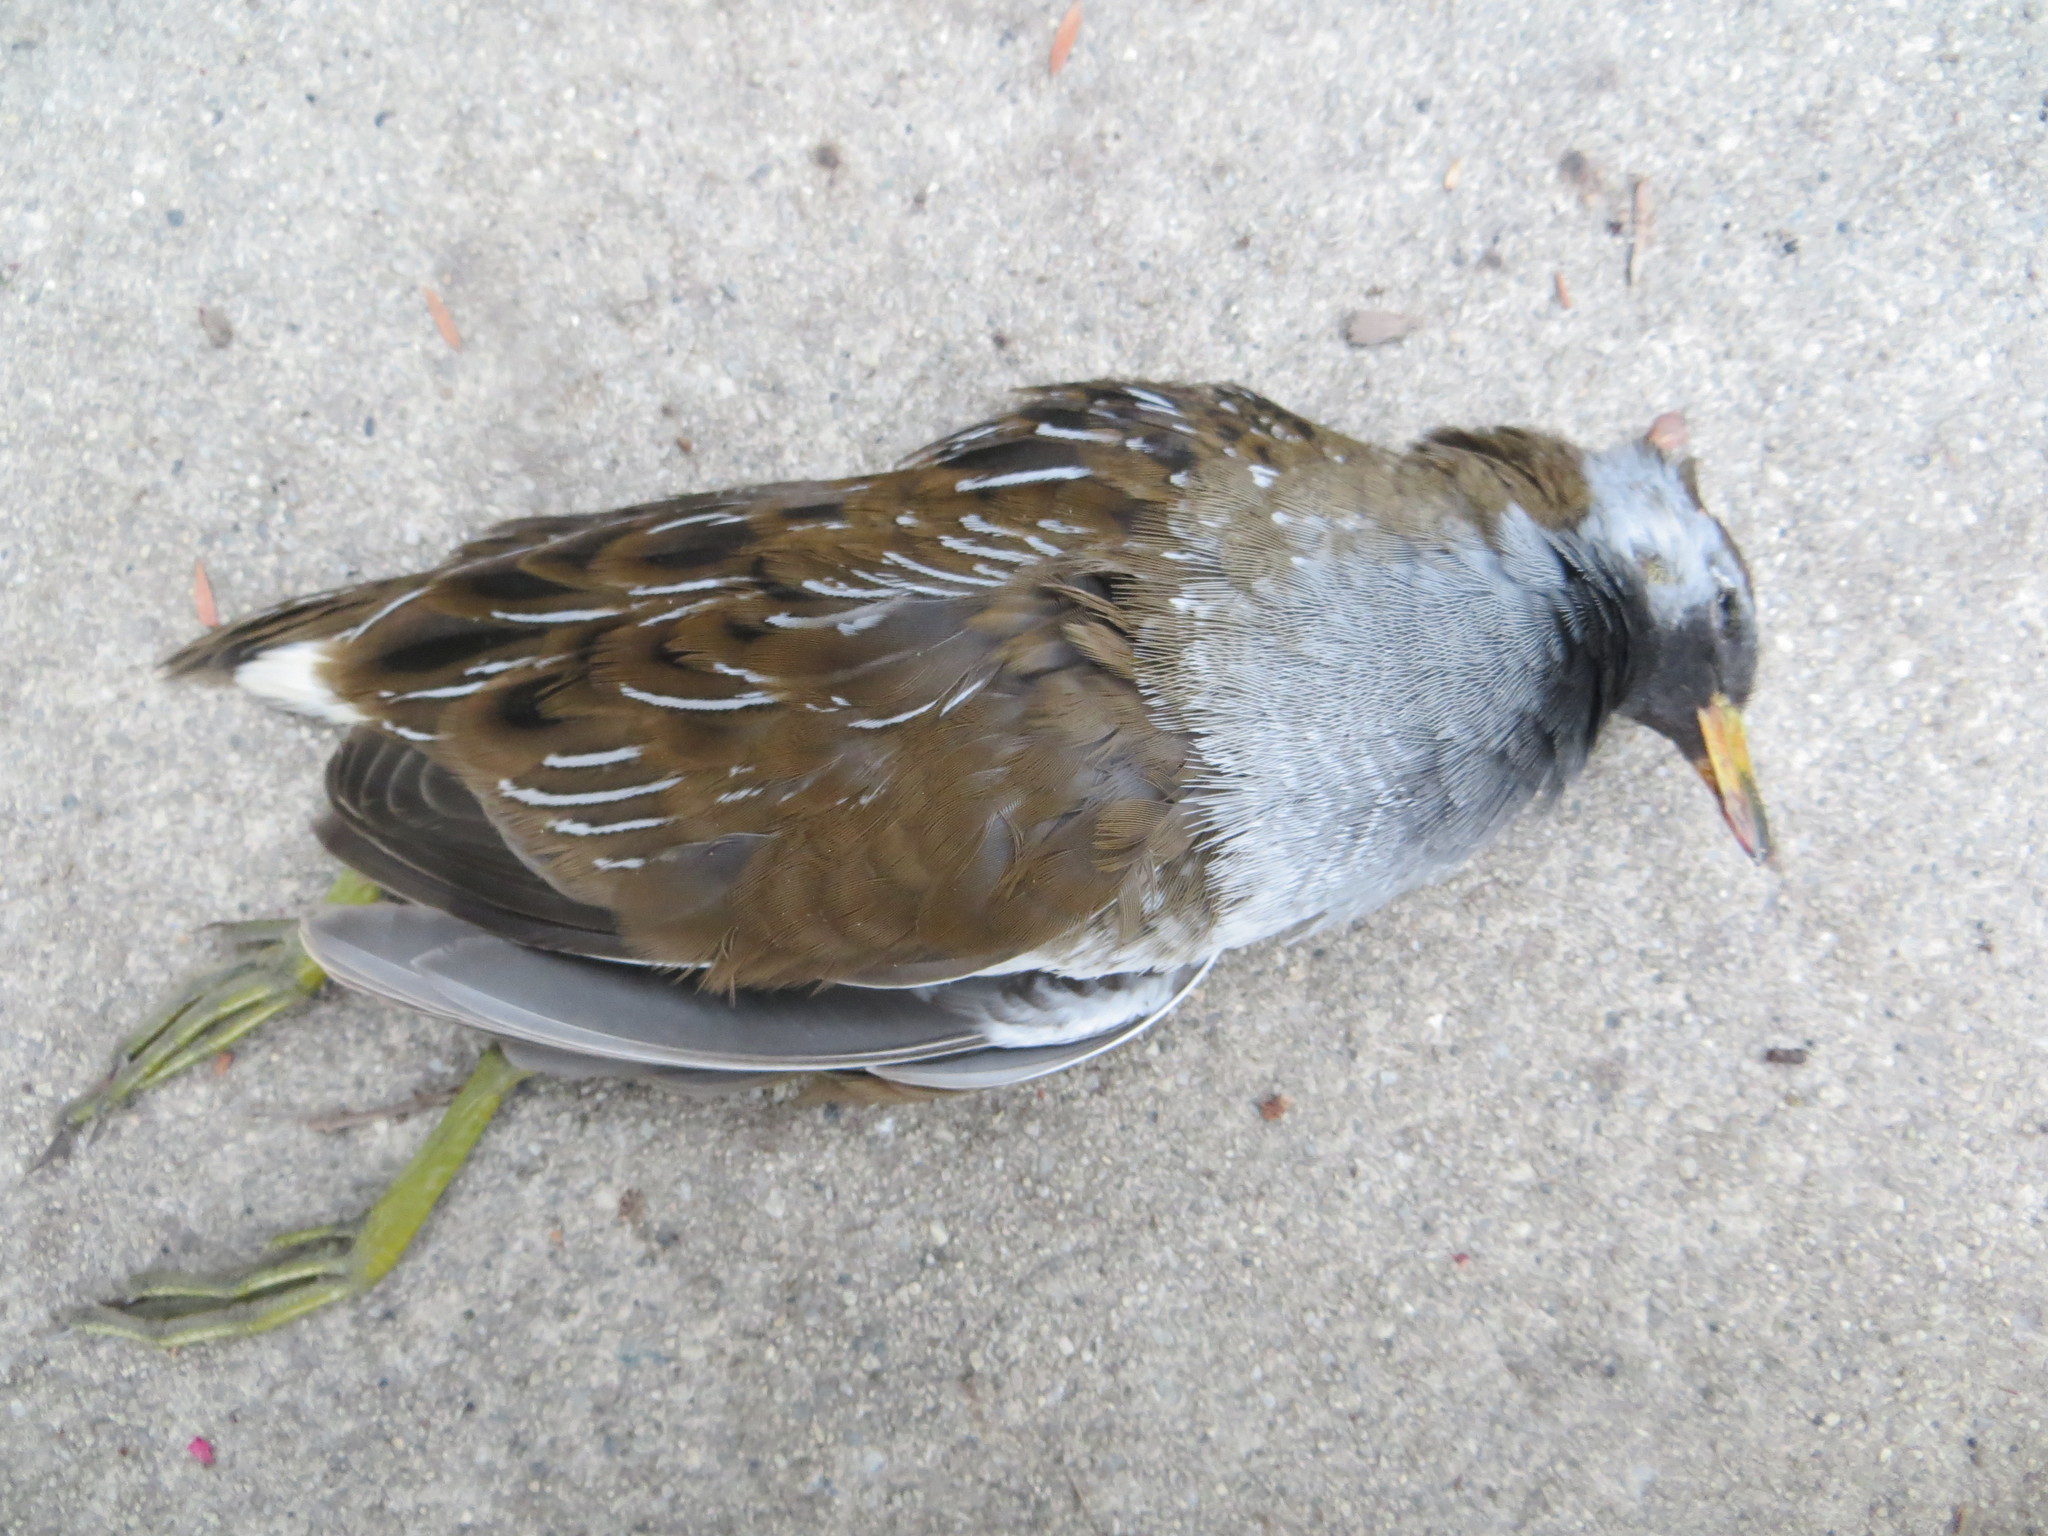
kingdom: Animalia
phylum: Chordata
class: Aves
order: Gruiformes
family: Rallidae
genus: Porzana
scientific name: Porzana carolina
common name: Sora
